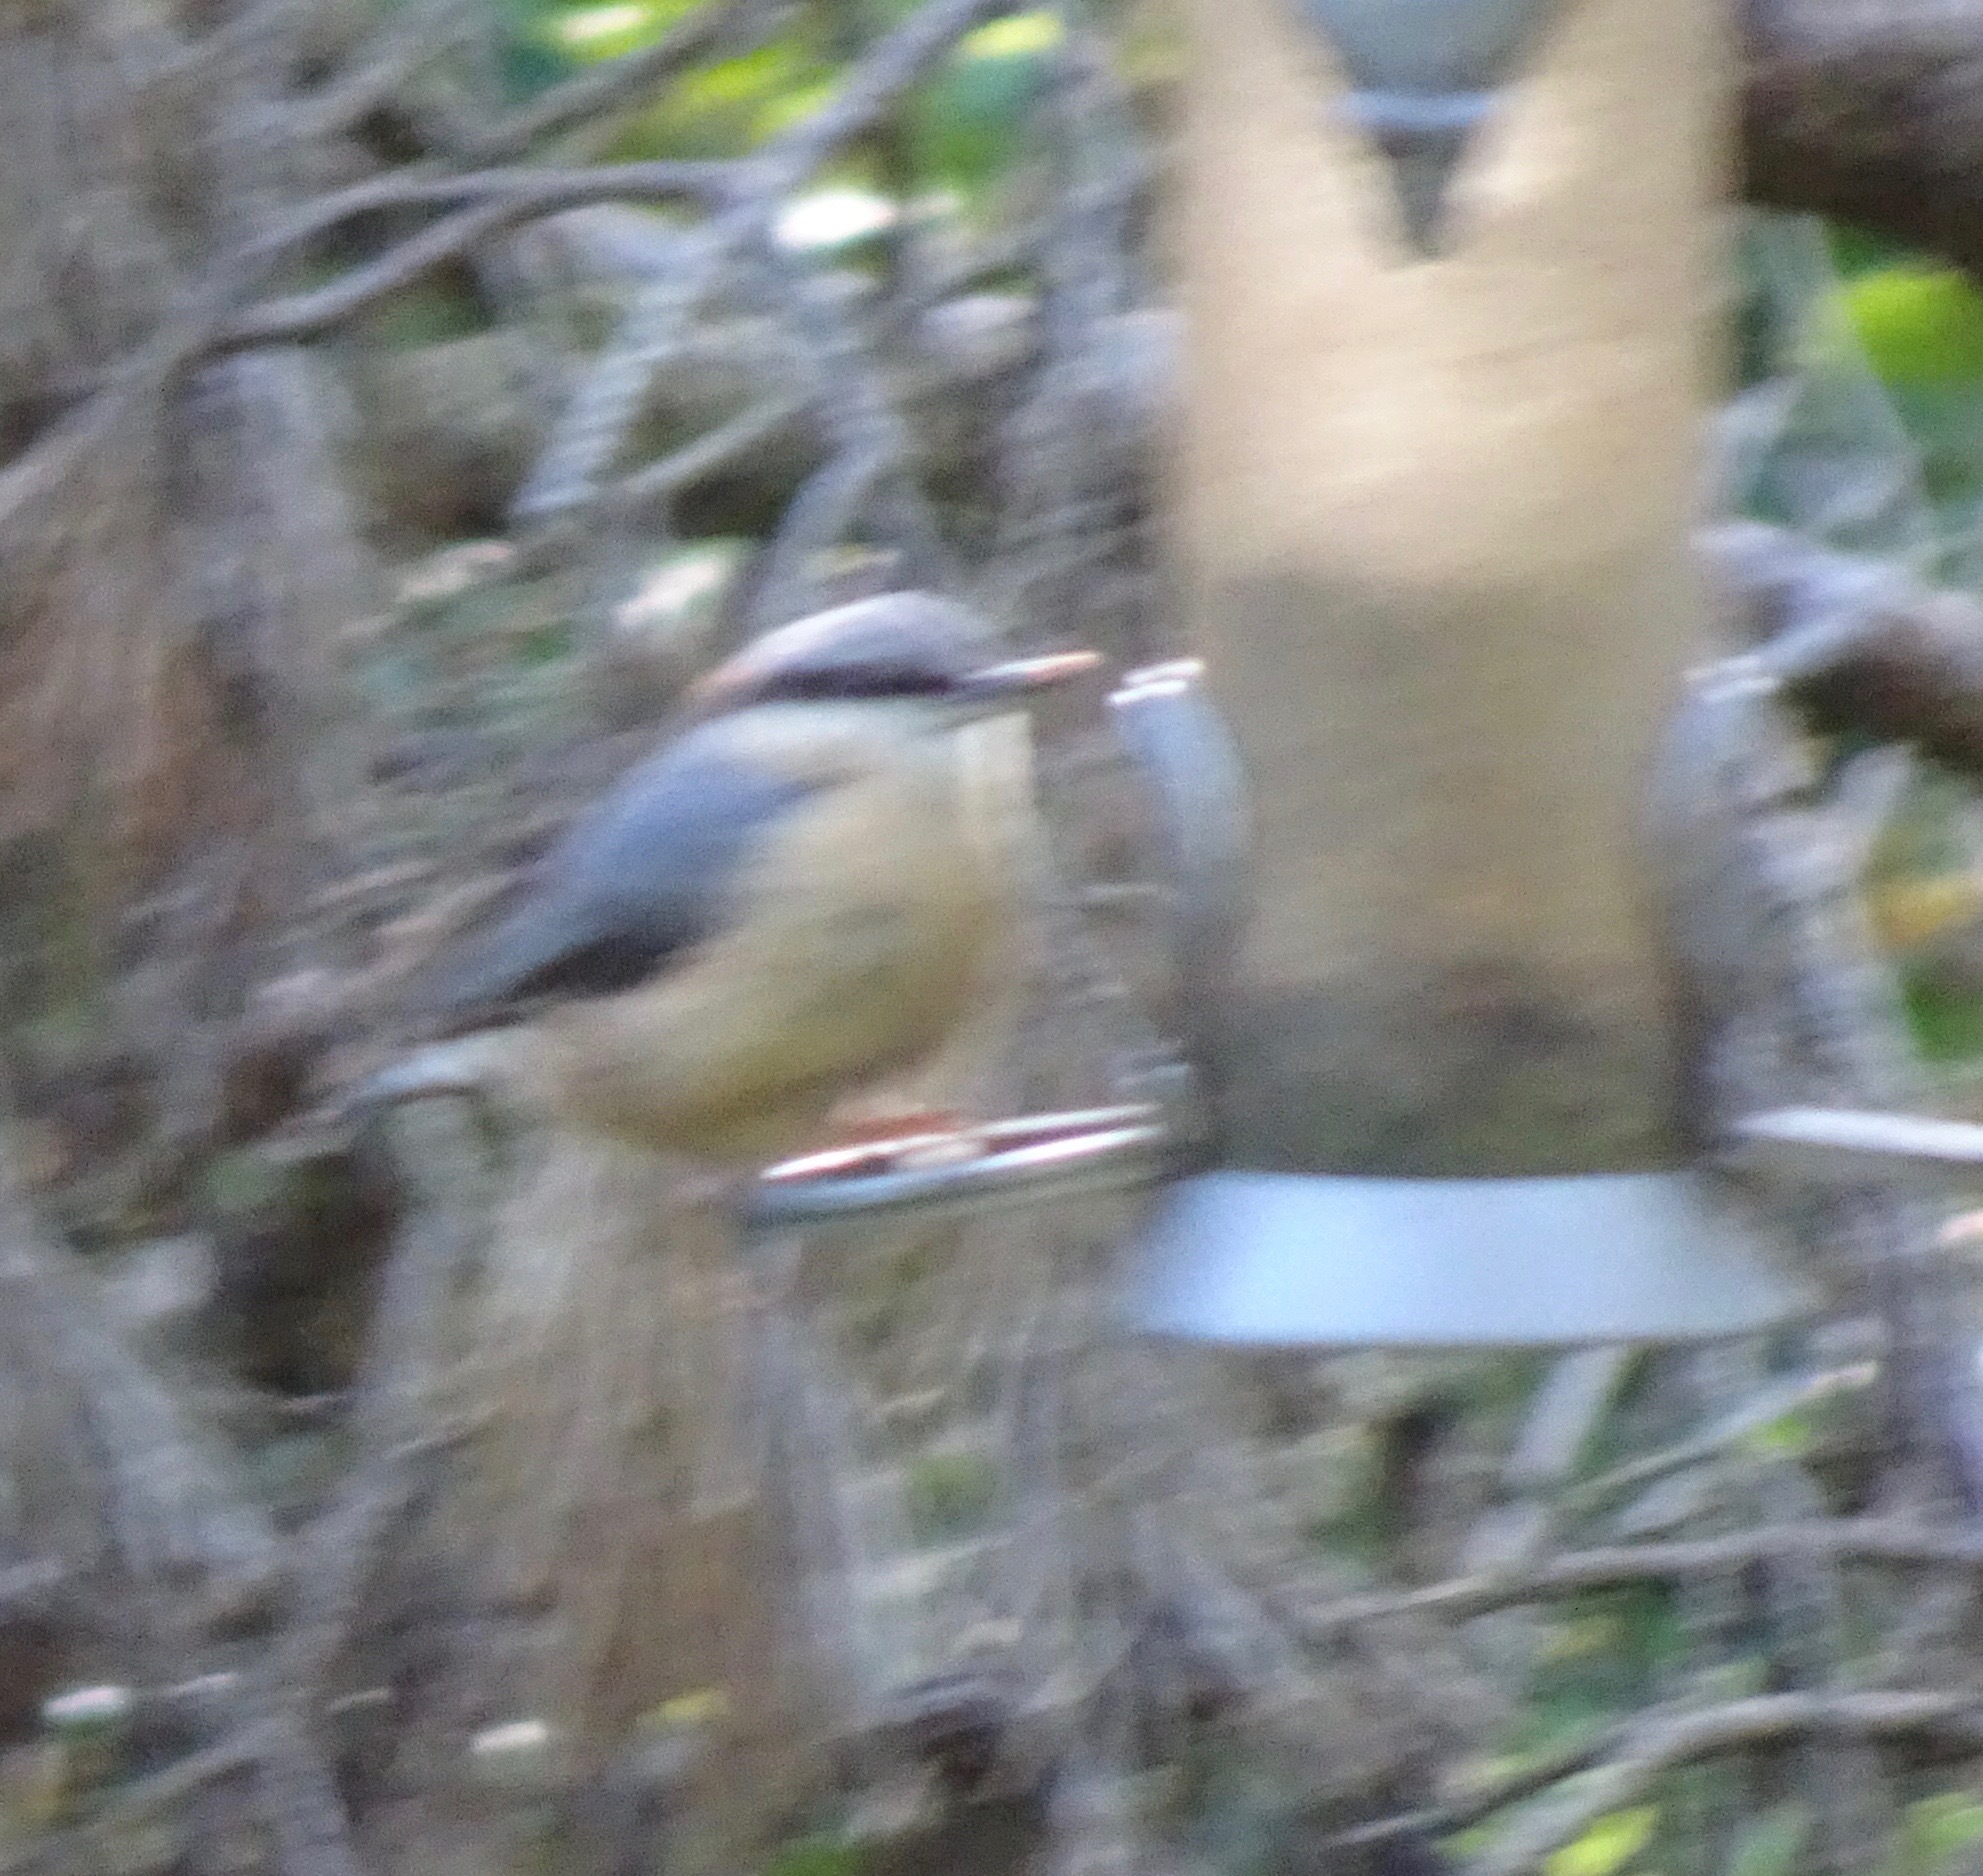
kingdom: Animalia
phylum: Chordata
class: Aves
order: Passeriformes
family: Sittidae
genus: Sitta
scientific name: Sitta europaea
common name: Eurasian nuthatch
